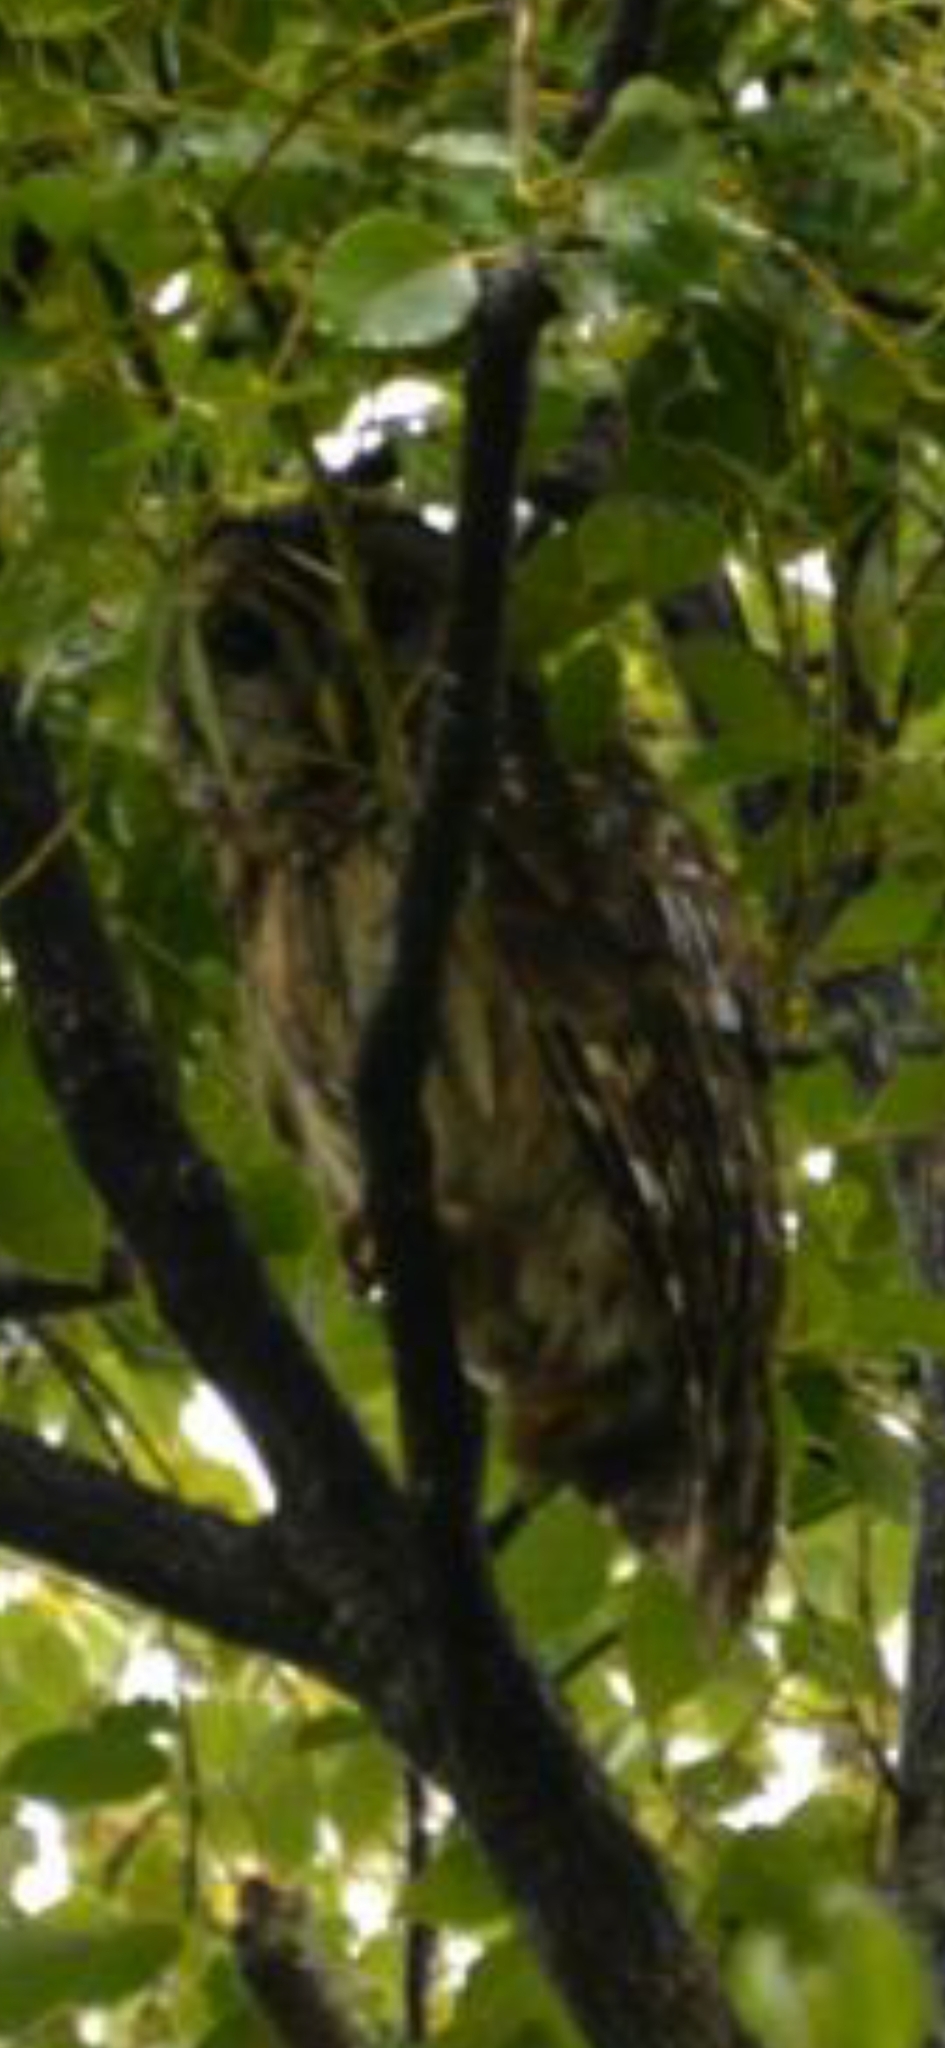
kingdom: Animalia
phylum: Chordata
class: Aves
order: Strigiformes
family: Strigidae
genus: Strix
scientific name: Strix varia
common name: Barred owl
